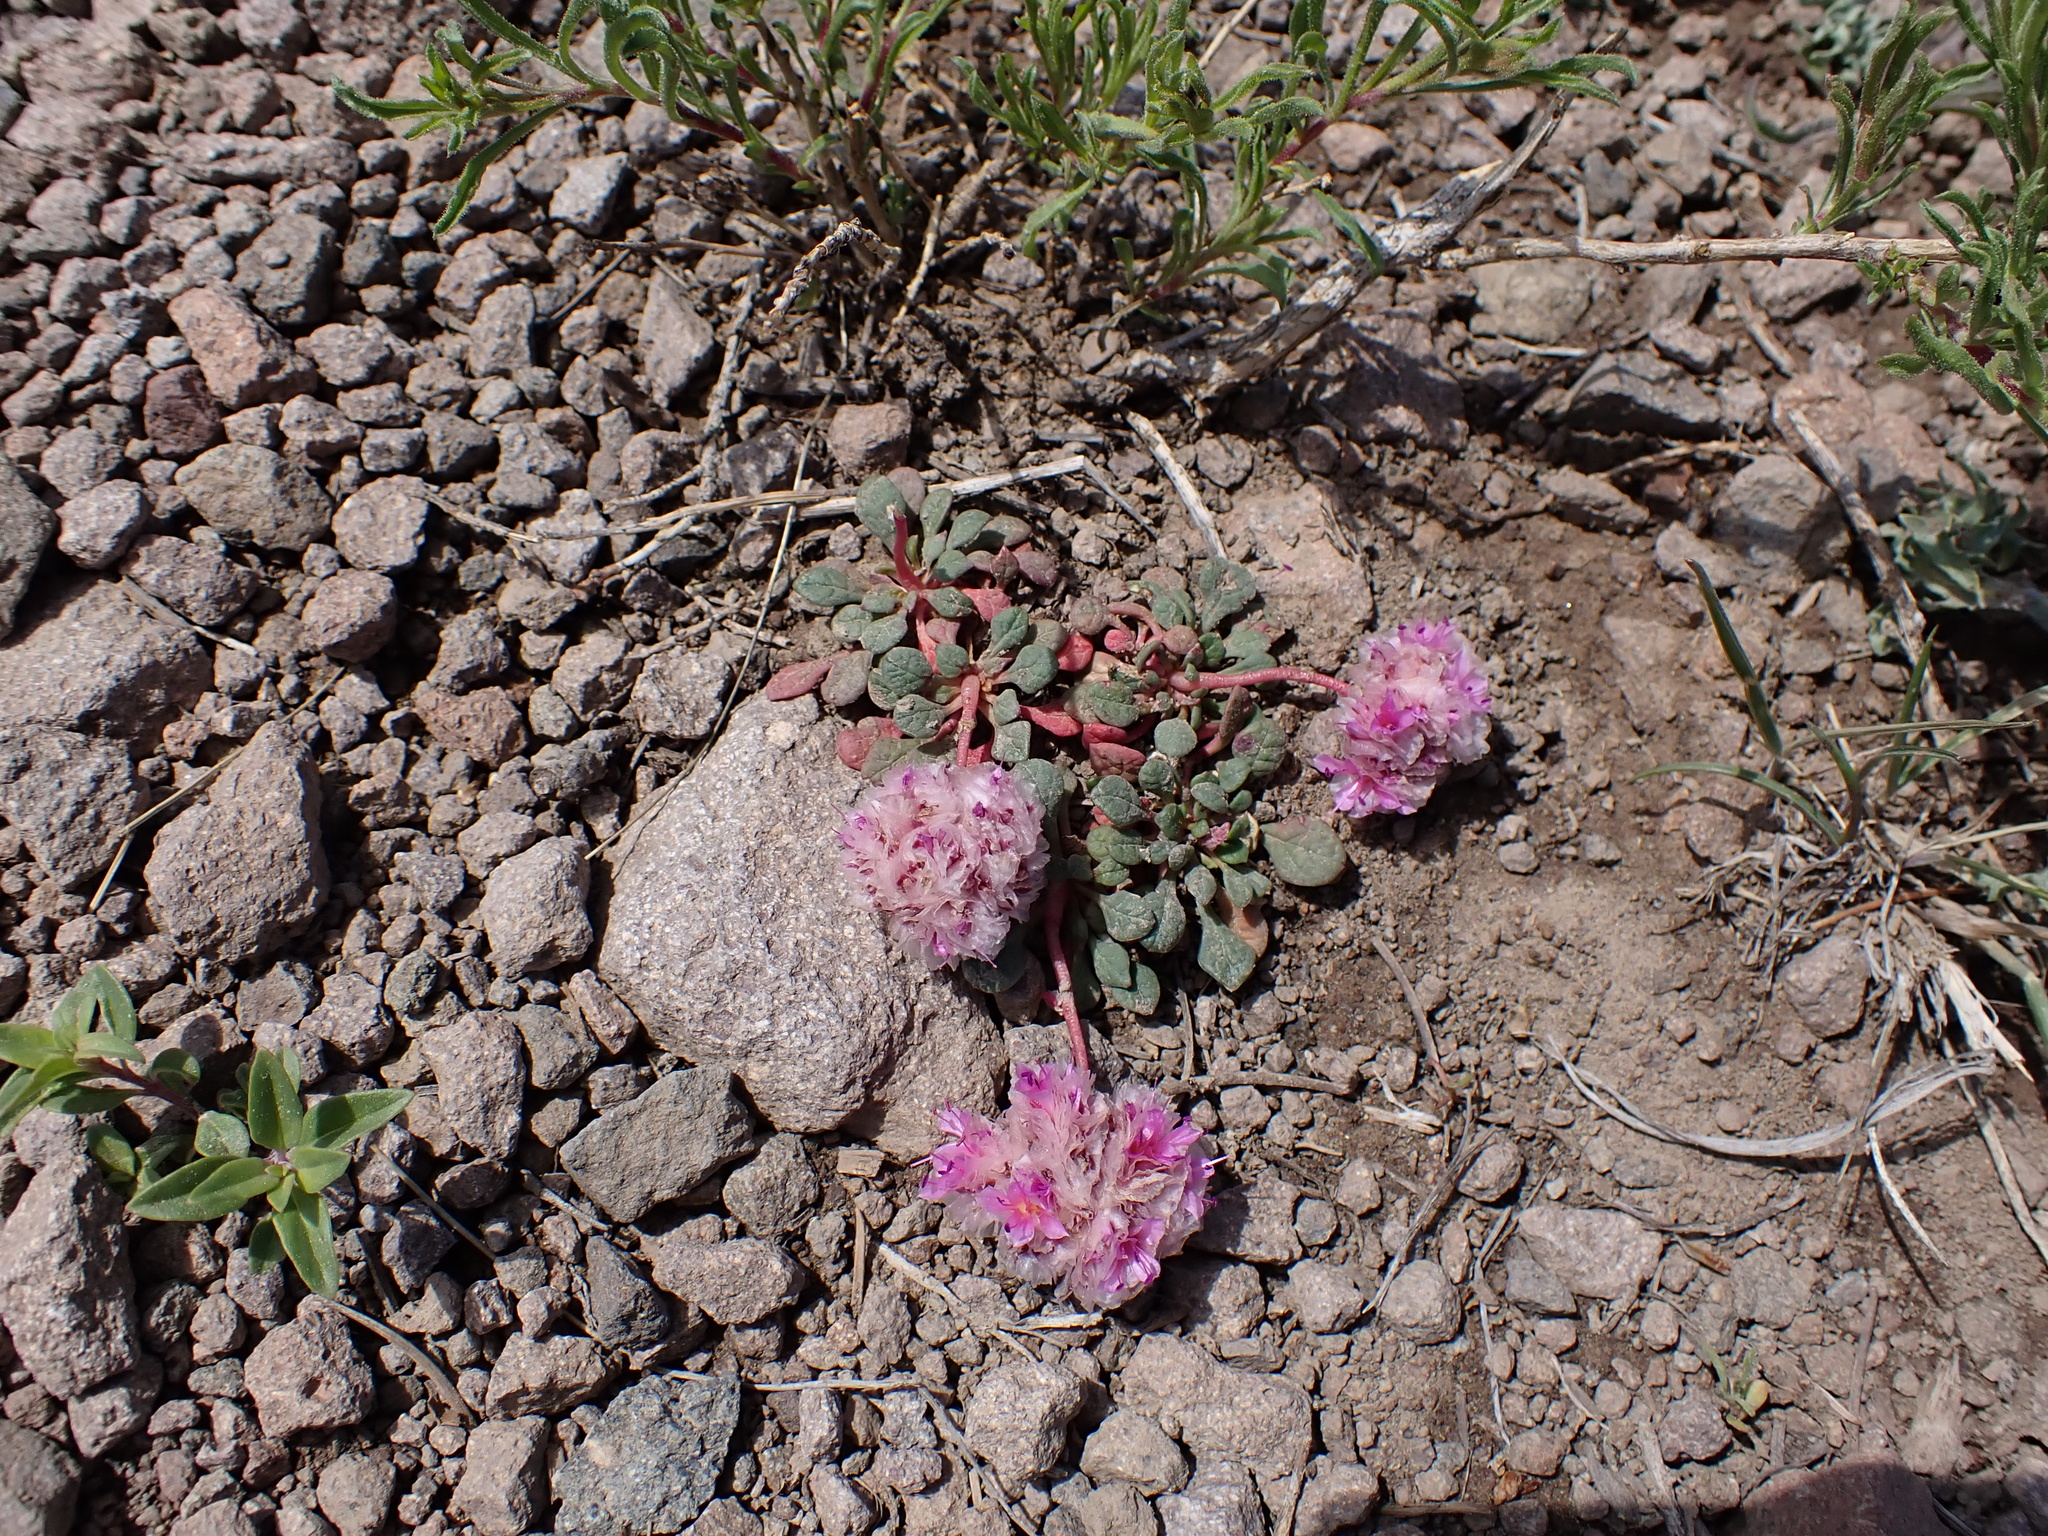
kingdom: Plantae
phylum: Tracheophyta
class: Magnoliopsida
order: Caryophyllales
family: Montiaceae
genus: Calyptridium
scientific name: Calyptridium umbellatum
